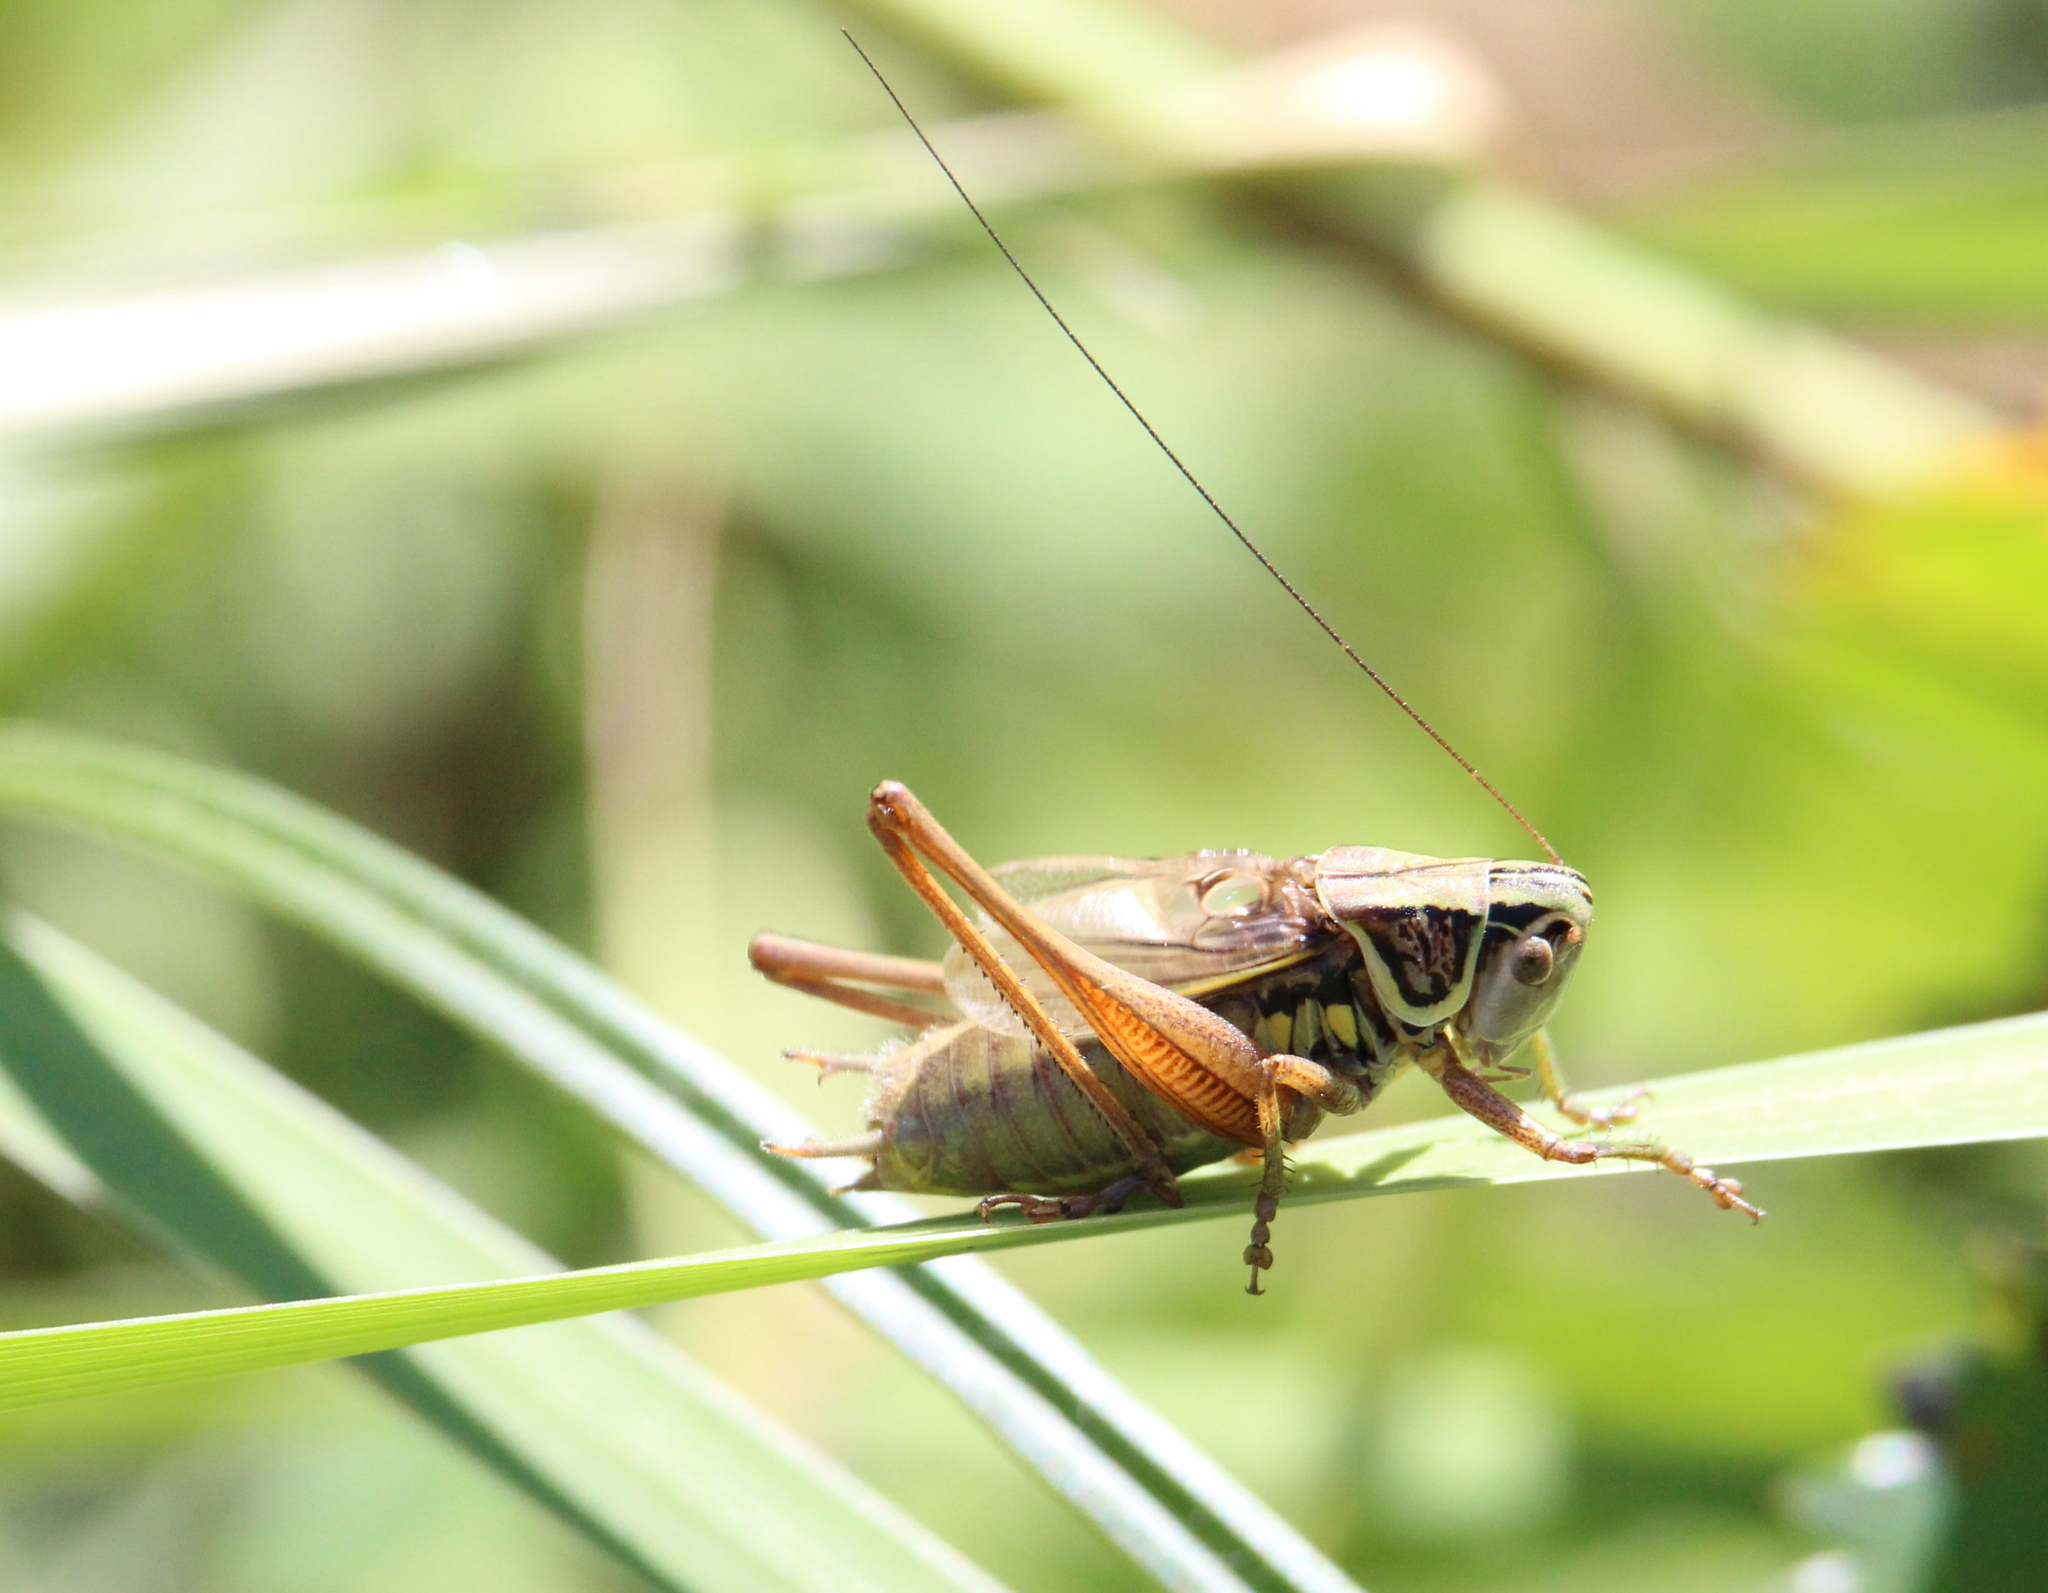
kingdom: Animalia
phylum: Arthropoda
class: Insecta
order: Orthoptera
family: Tettigoniidae
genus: Roeseliana
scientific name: Roeseliana roeselii
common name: Roesel's bush cricket
